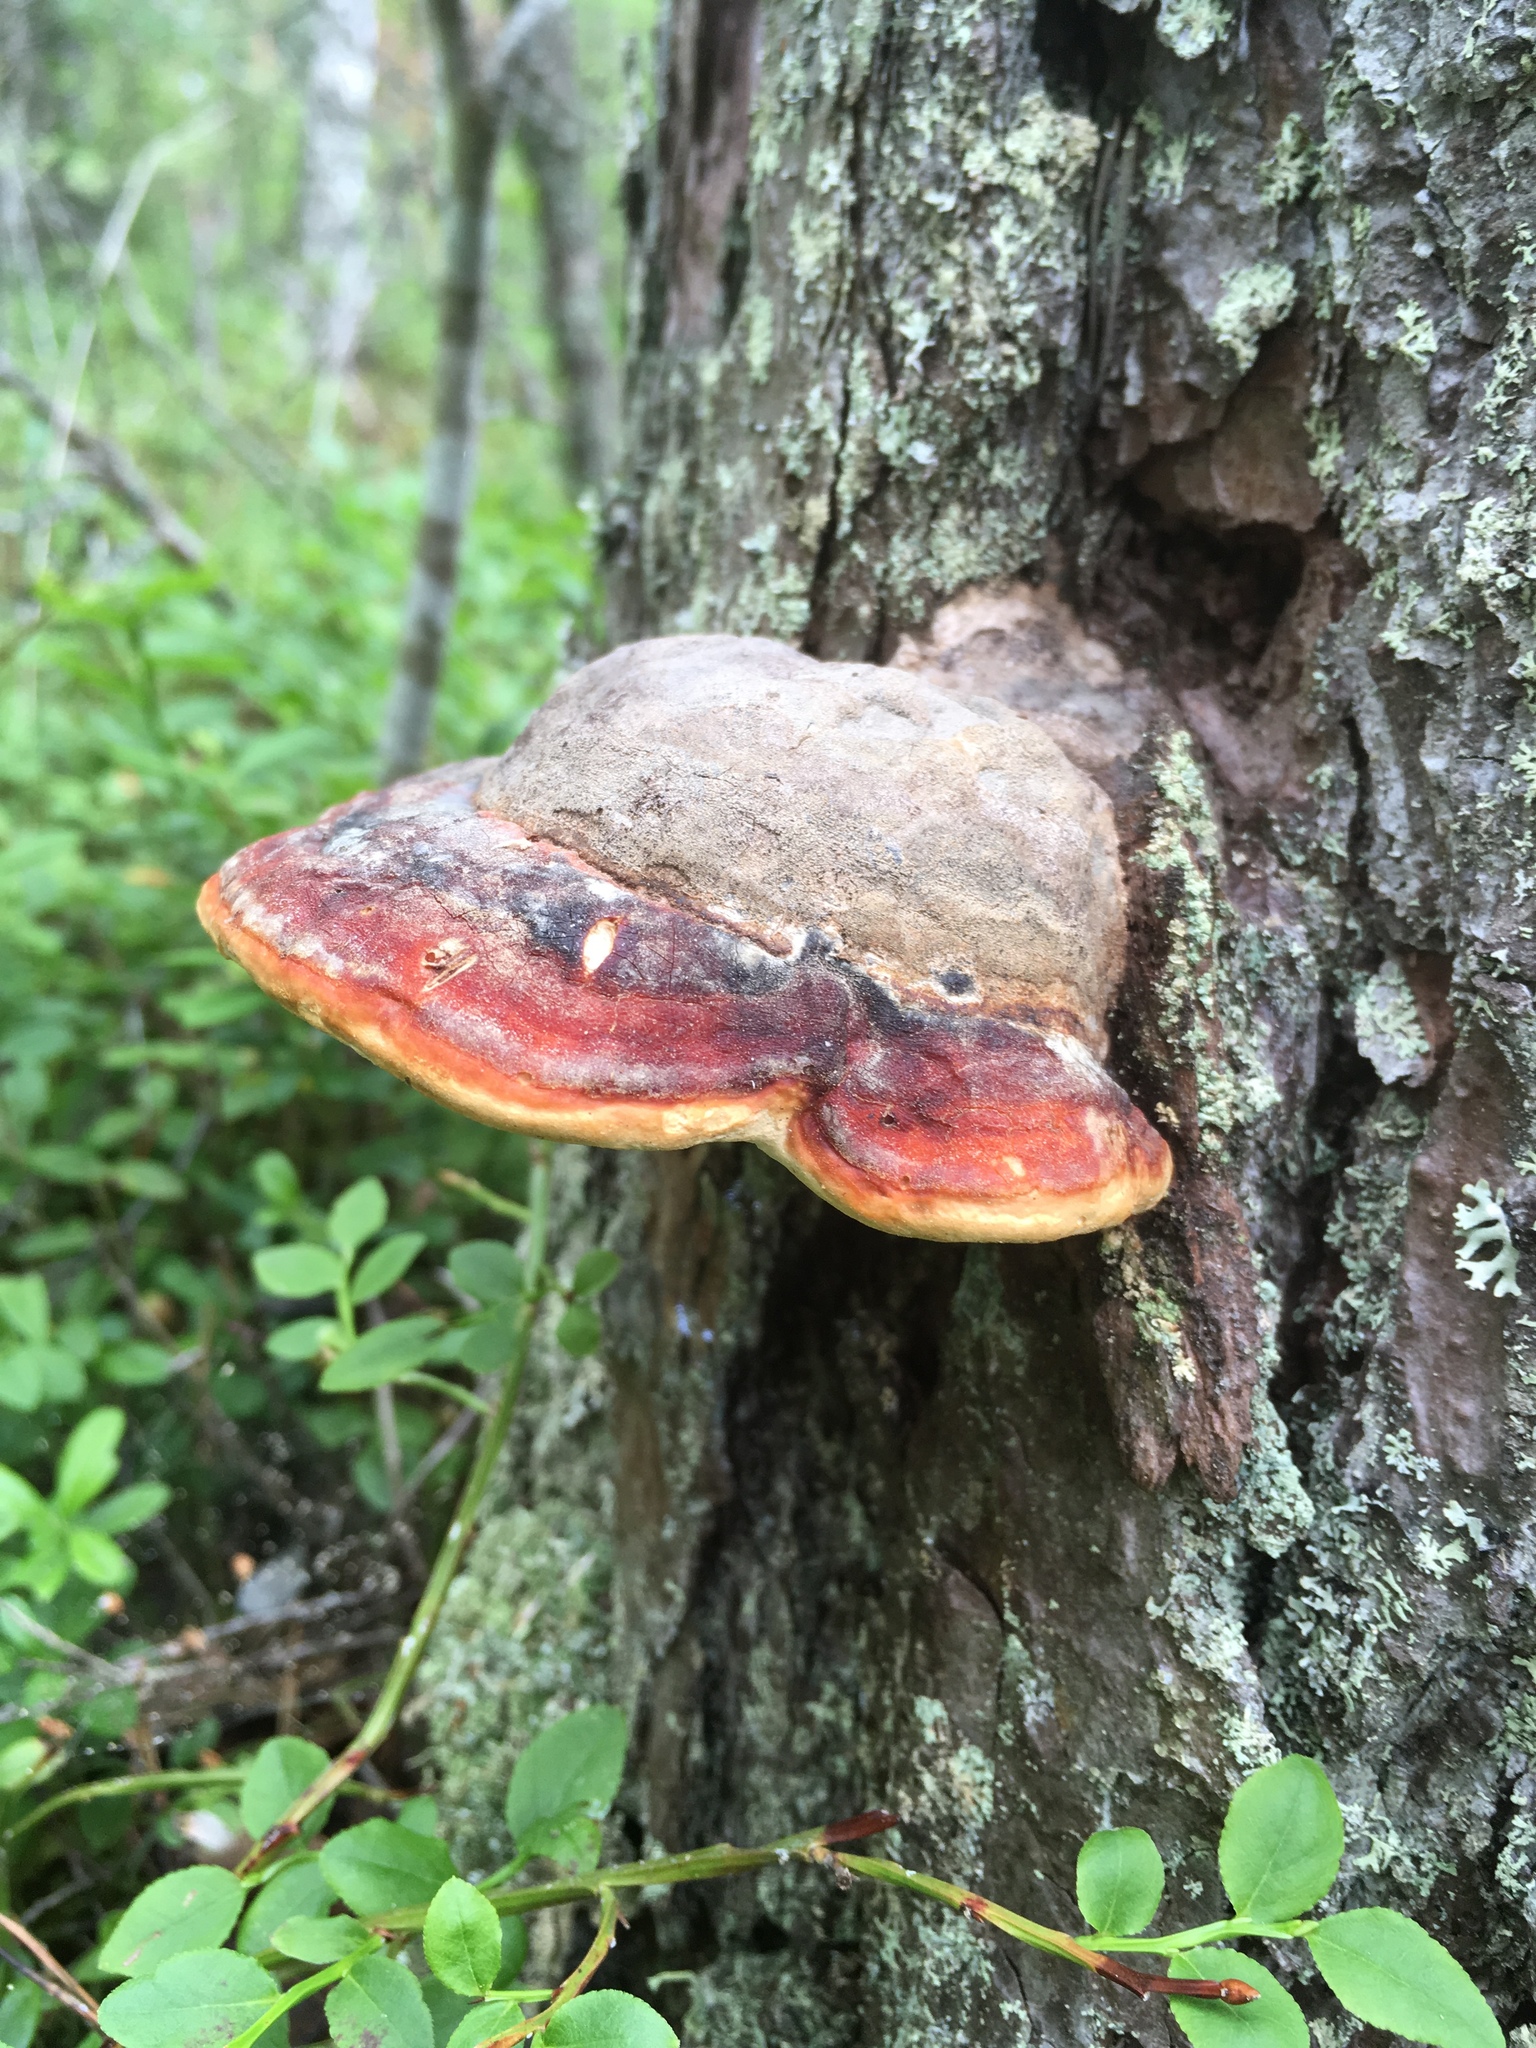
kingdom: Fungi
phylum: Basidiomycota
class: Agaricomycetes
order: Polyporales
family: Fomitopsidaceae
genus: Fomitopsis
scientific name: Fomitopsis pinicola
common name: Red-belted bracket
